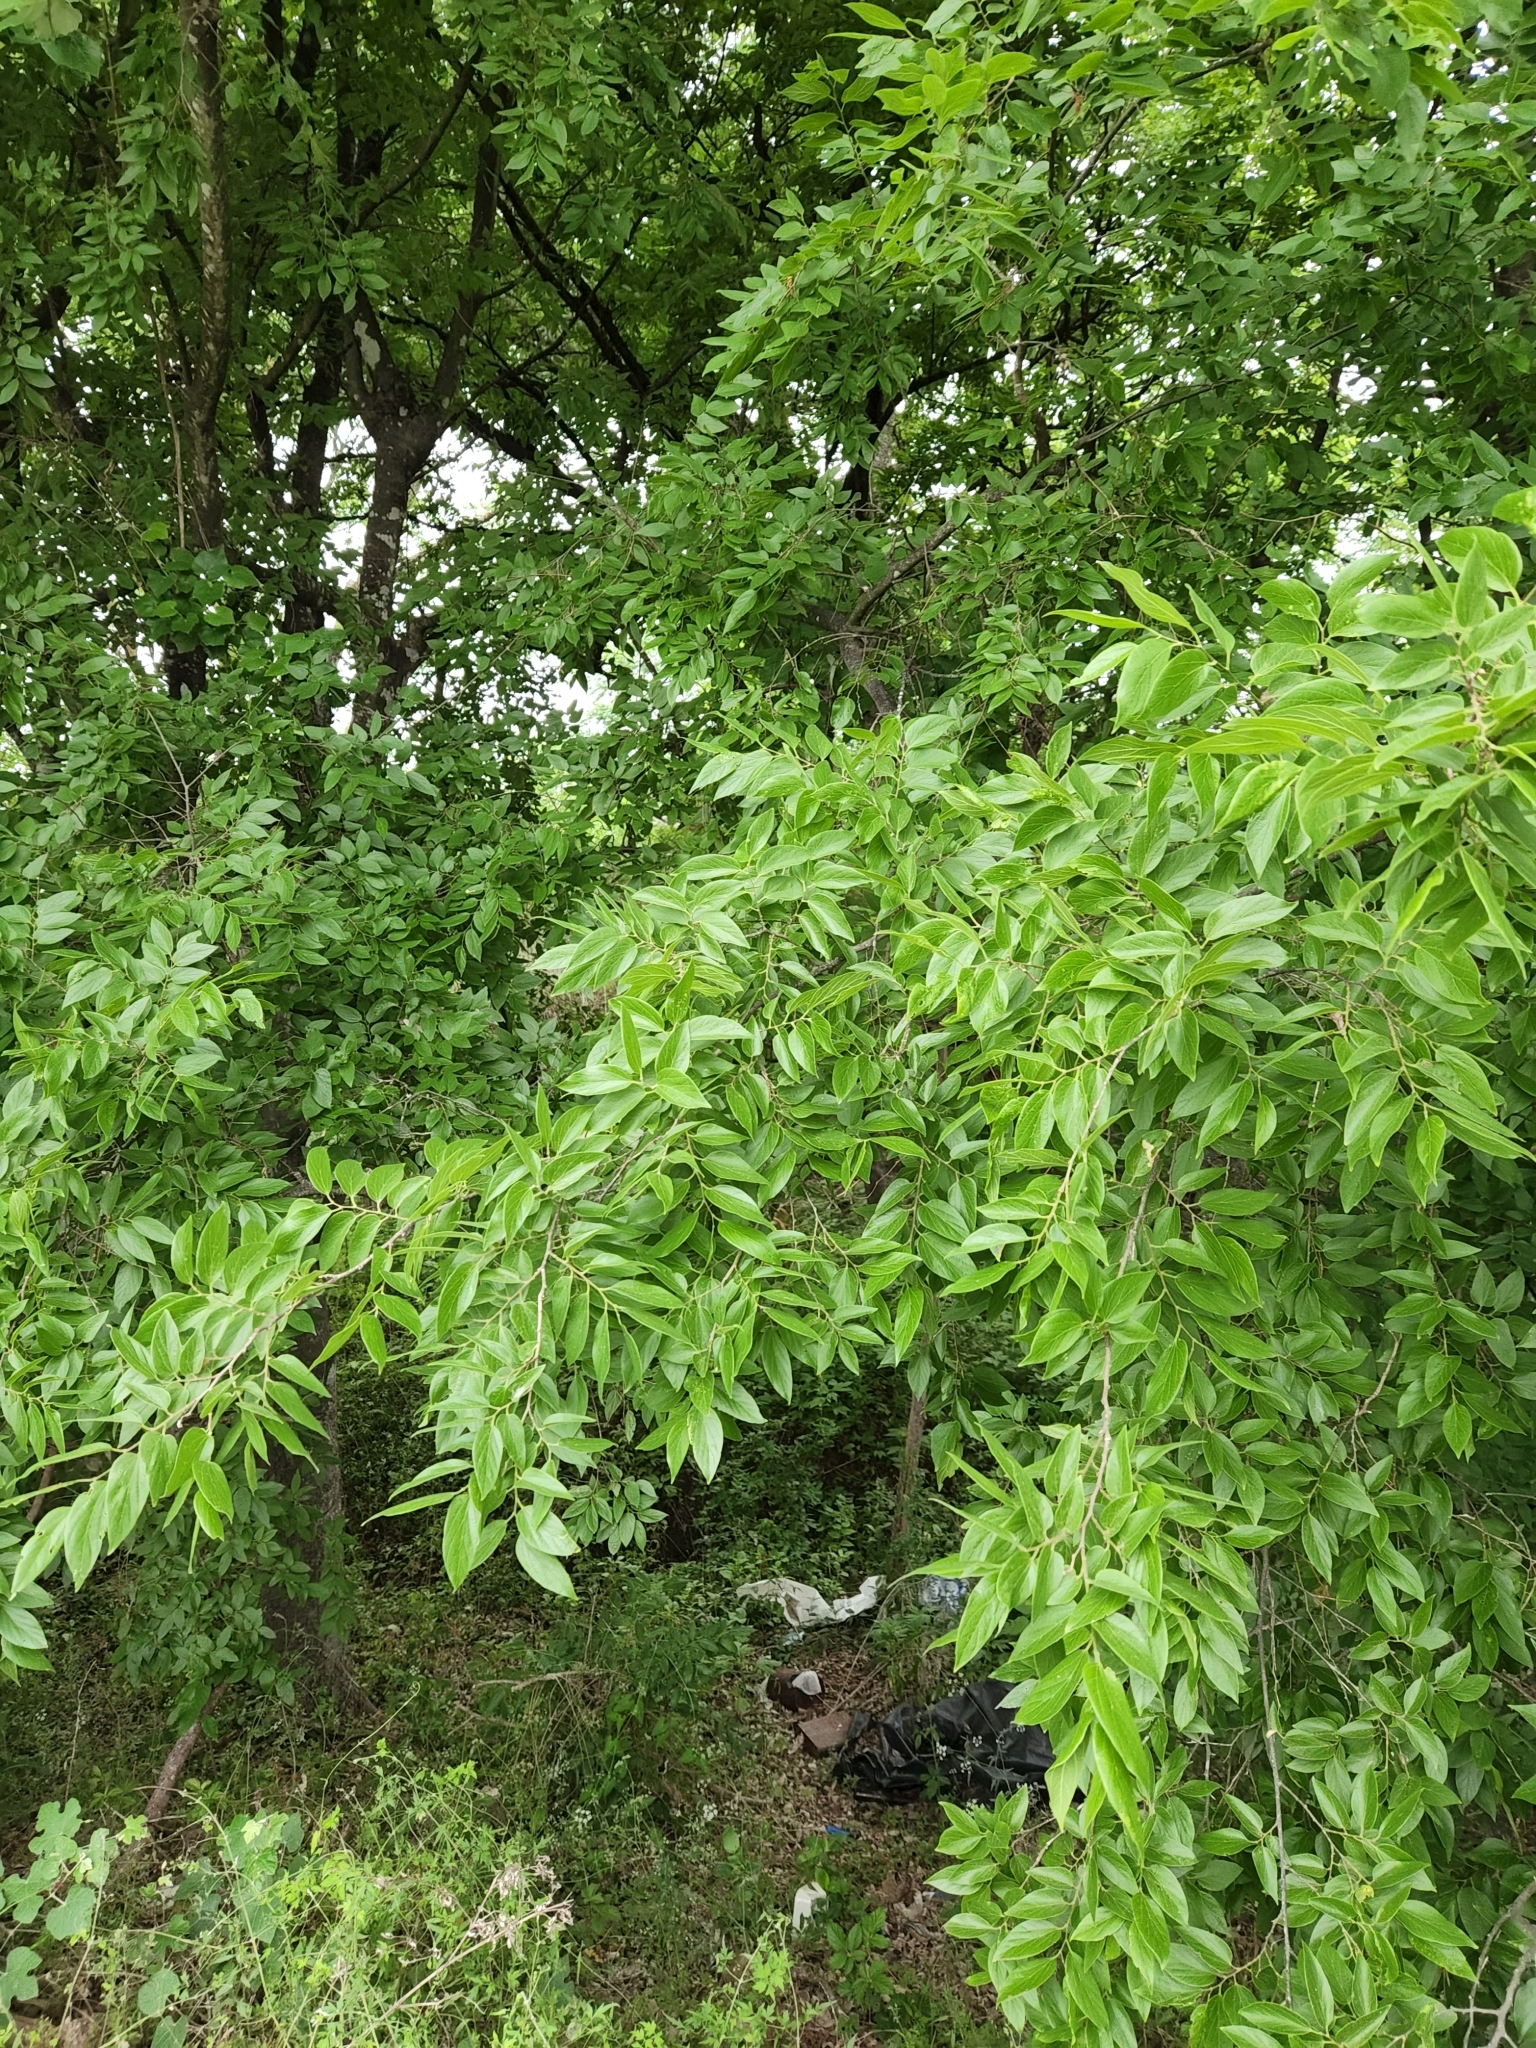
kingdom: Plantae
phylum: Tracheophyta
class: Magnoliopsida
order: Rosales
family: Cannabaceae
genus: Celtis
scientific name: Celtis laevigata
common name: Sugarberry
